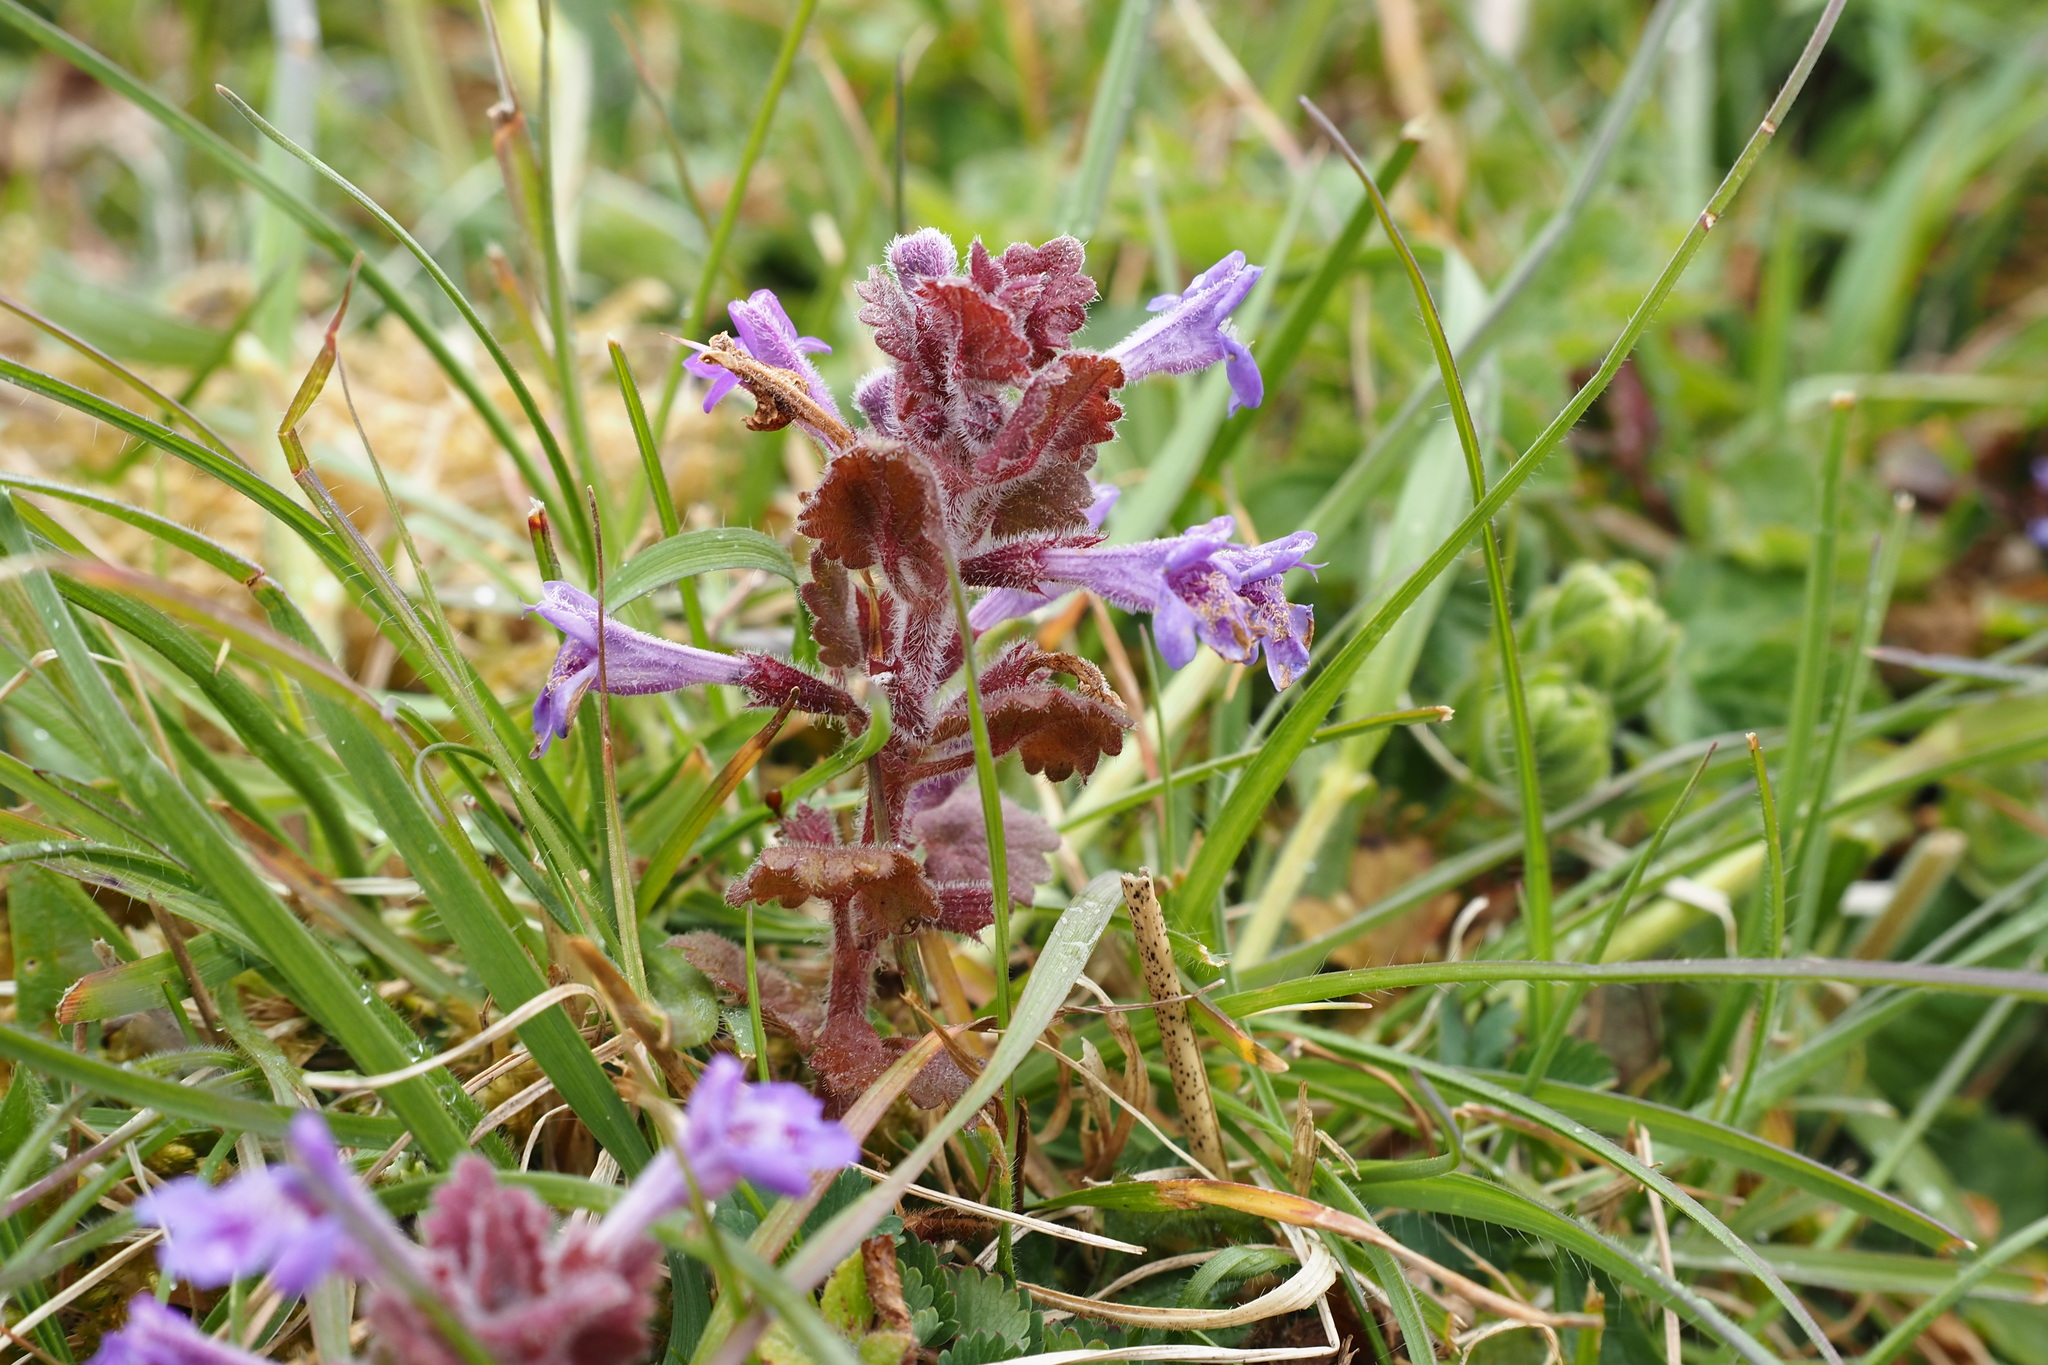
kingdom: Plantae
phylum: Tracheophyta
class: Magnoliopsida
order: Lamiales
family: Lamiaceae
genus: Glechoma
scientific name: Glechoma hederacea
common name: Ground ivy
